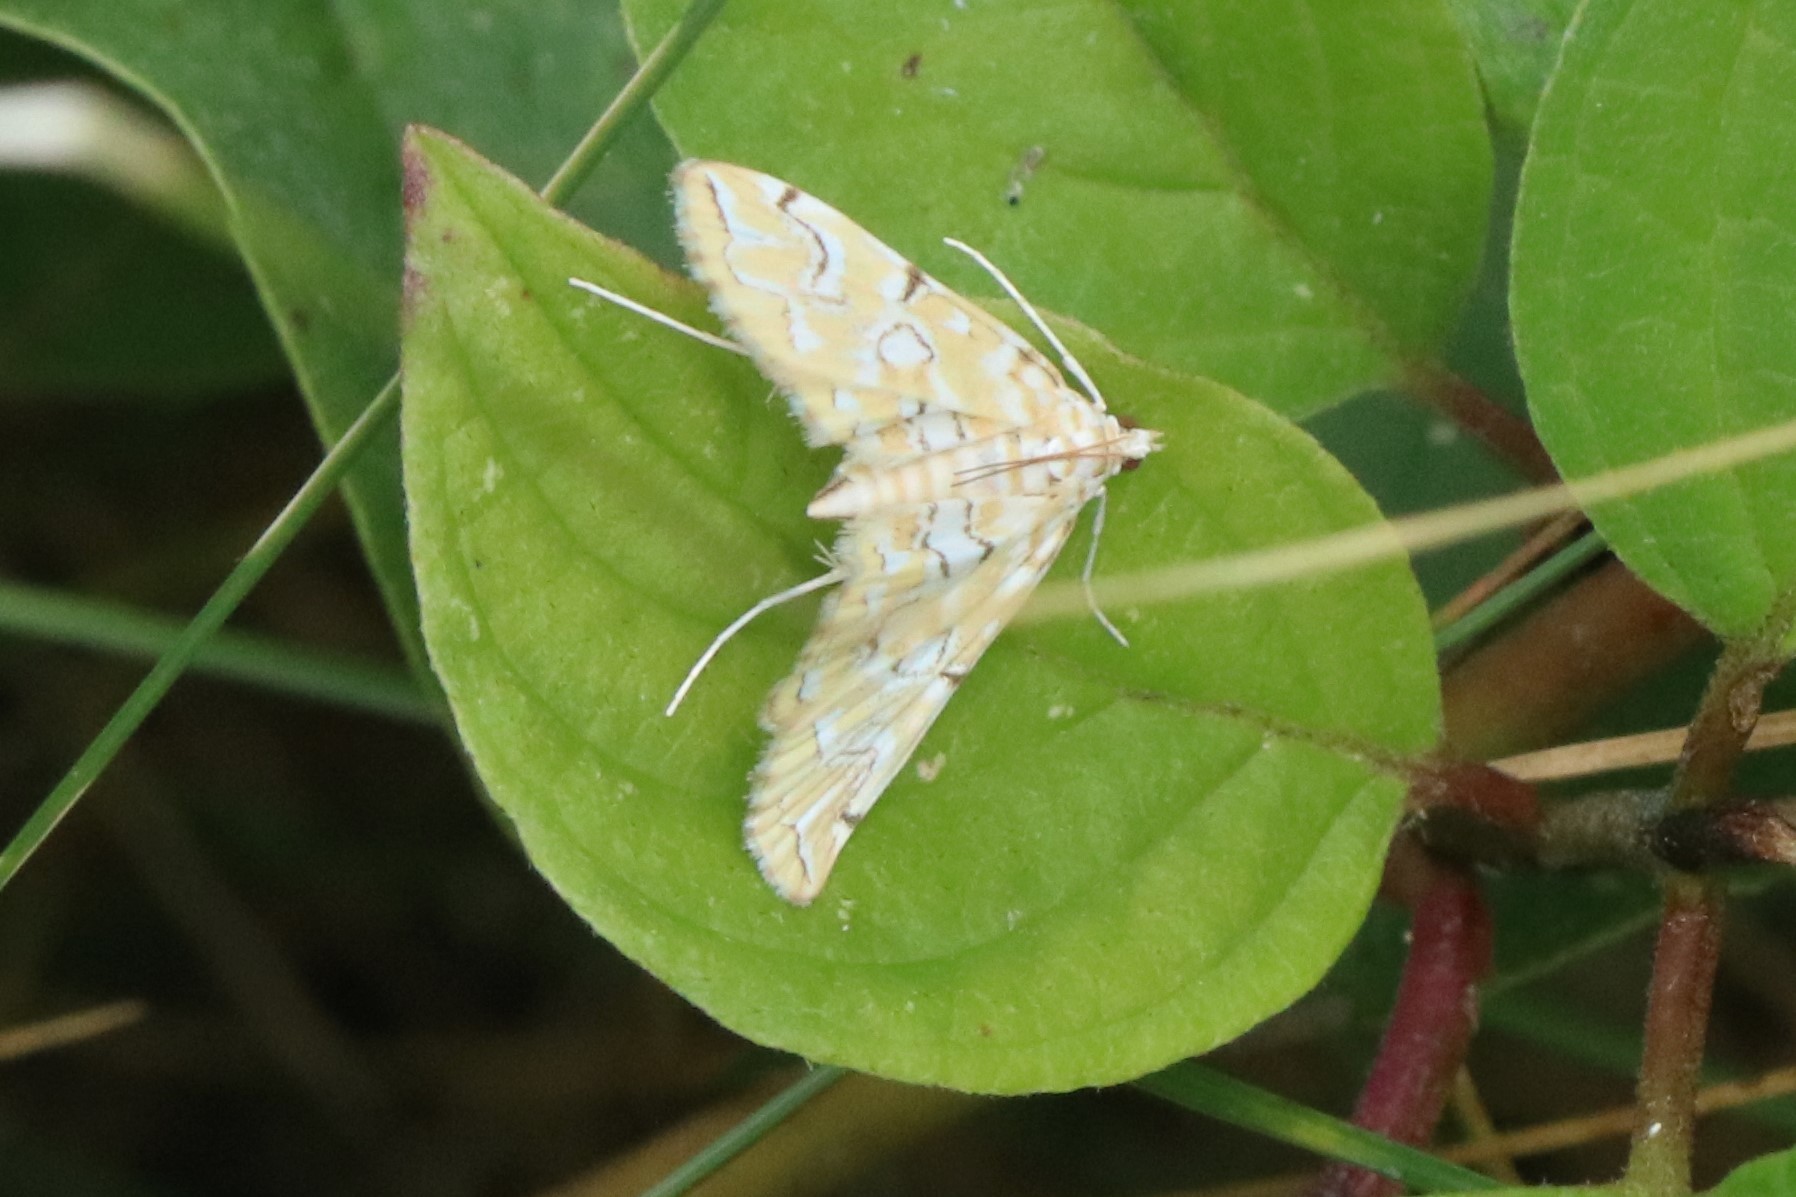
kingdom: Animalia
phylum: Arthropoda
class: Insecta
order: Lepidoptera
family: Crambidae
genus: Elophila
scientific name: Elophila icciusalis
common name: Pondside pyralid moth
